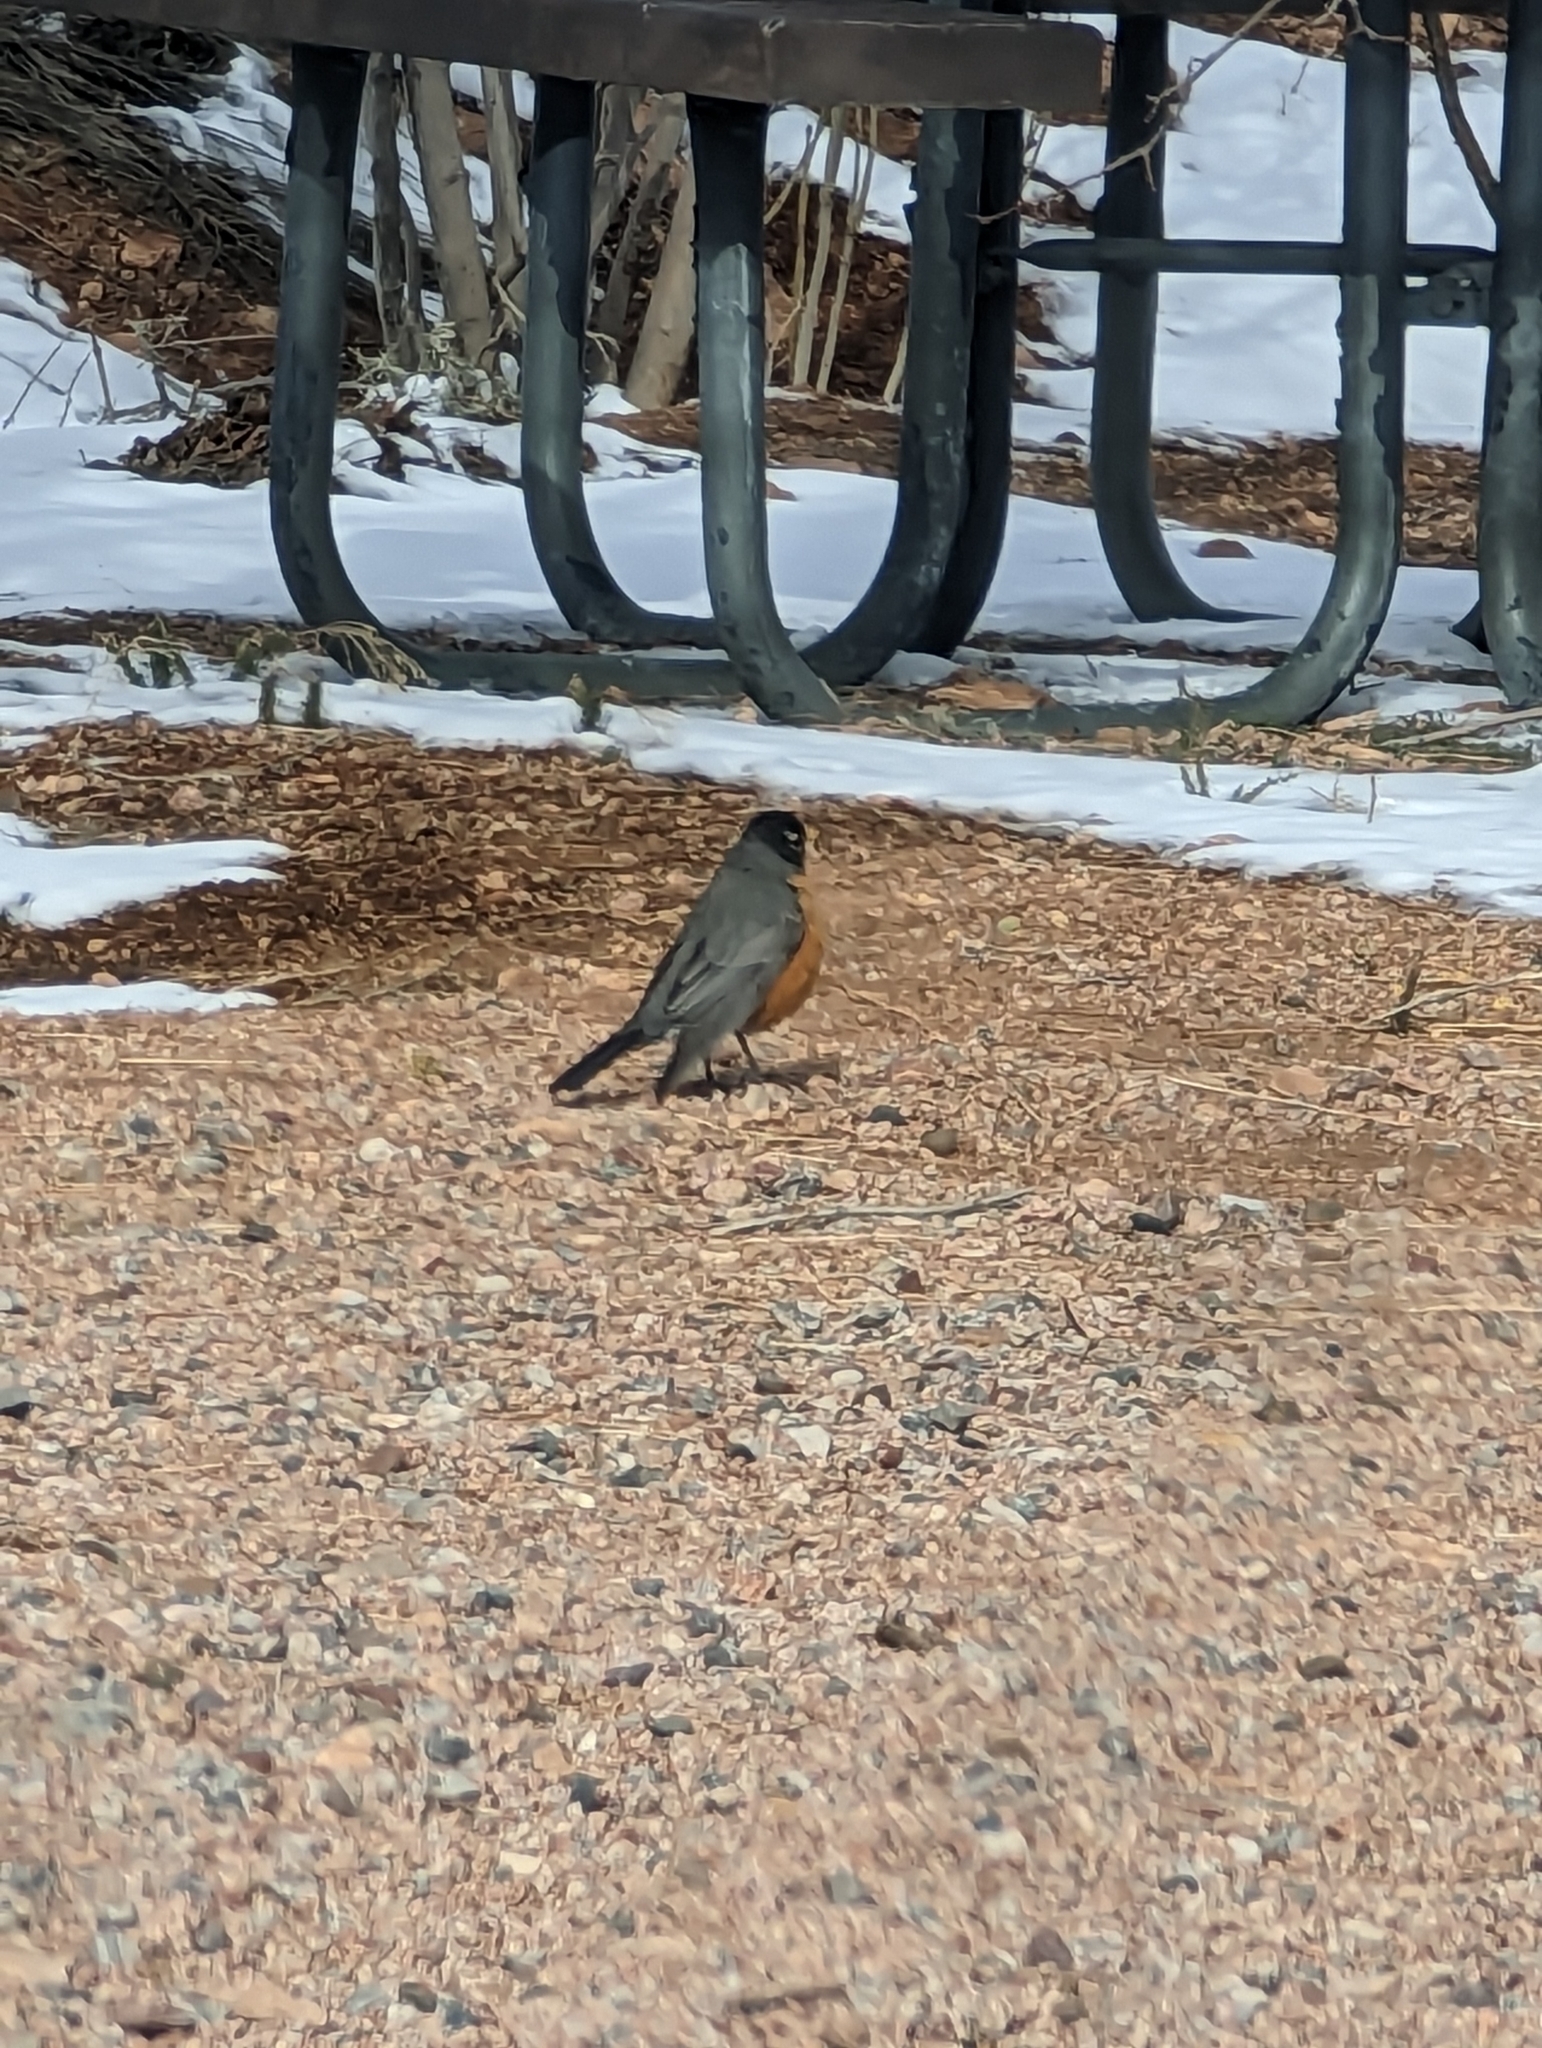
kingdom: Animalia
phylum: Chordata
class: Aves
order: Passeriformes
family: Turdidae
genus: Turdus
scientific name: Turdus migratorius
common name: American robin
